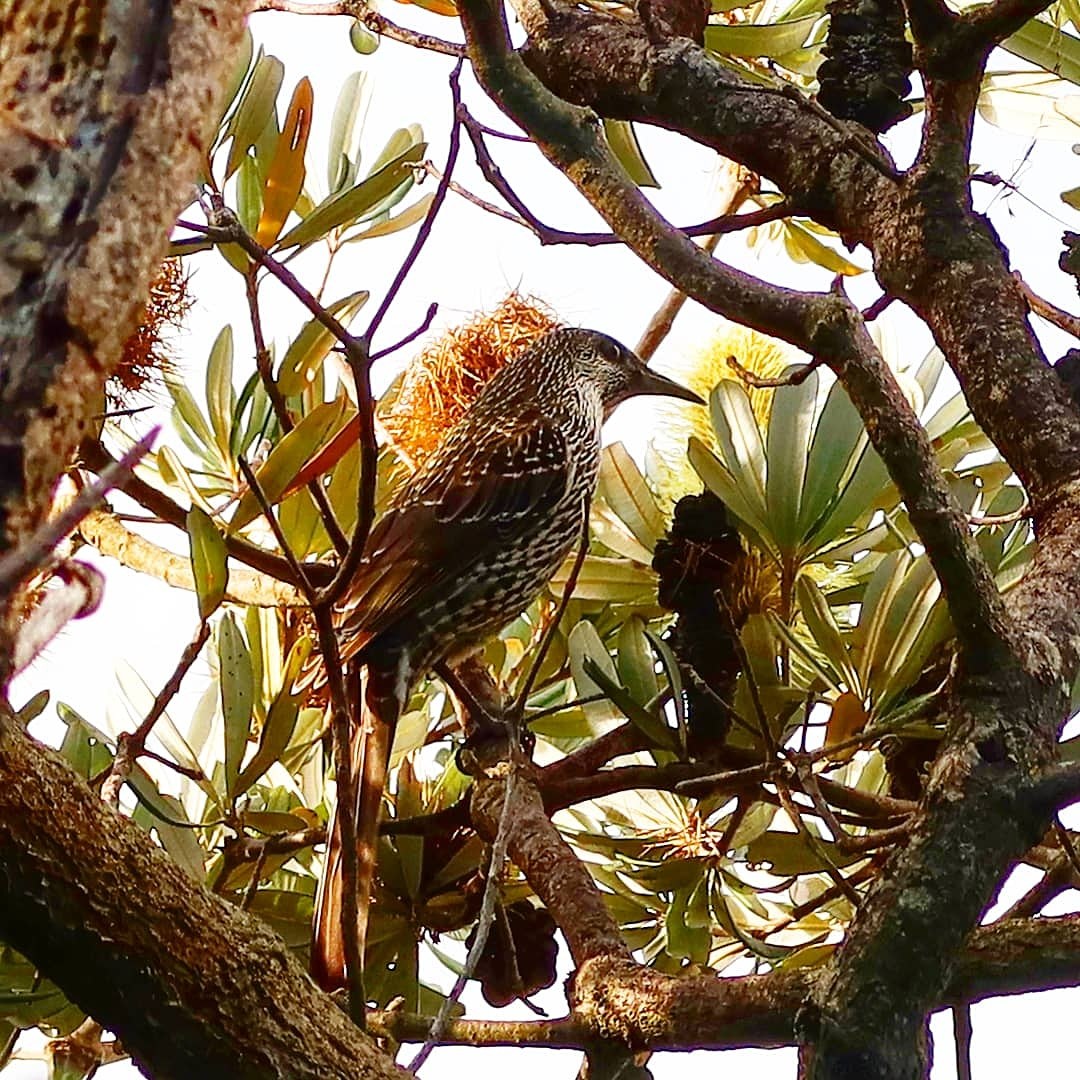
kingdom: Animalia
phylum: Chordata
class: Aves
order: Passeriformes
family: Meliphagidae
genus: Anthochaera
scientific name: Anthochaera chrysoptera
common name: Little wattlebird
